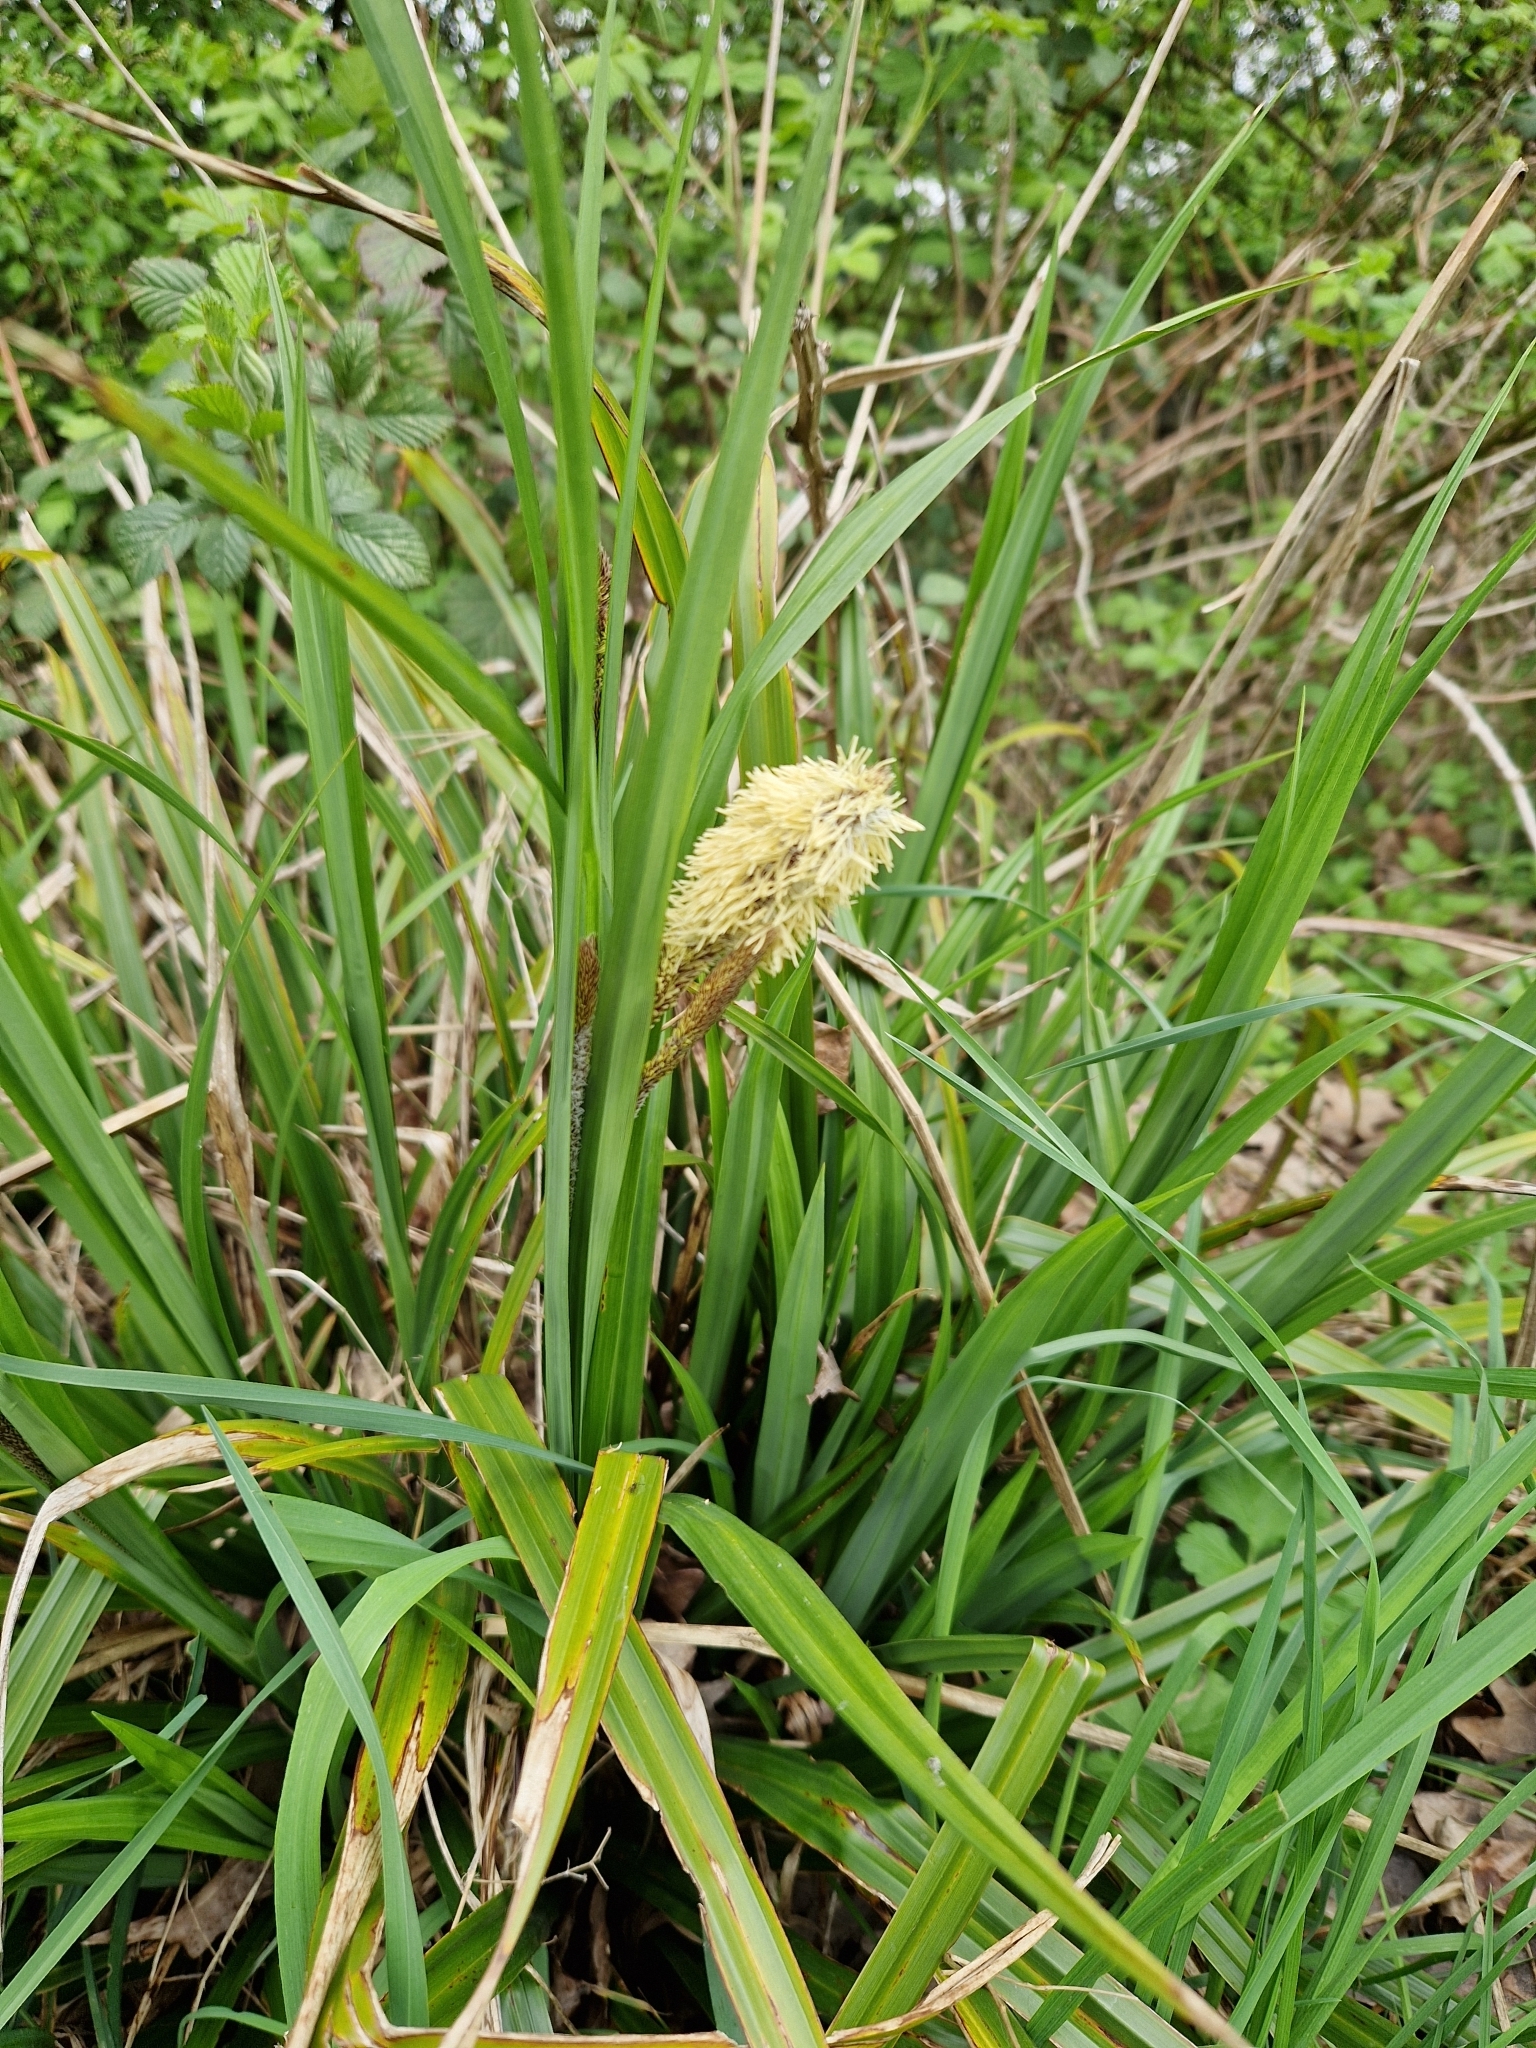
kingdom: Plantae
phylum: Tracheophyta
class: Liliopsida
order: Poales
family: Cyperaceae
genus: Carex
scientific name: Carex pendula
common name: Pendulous sedge
